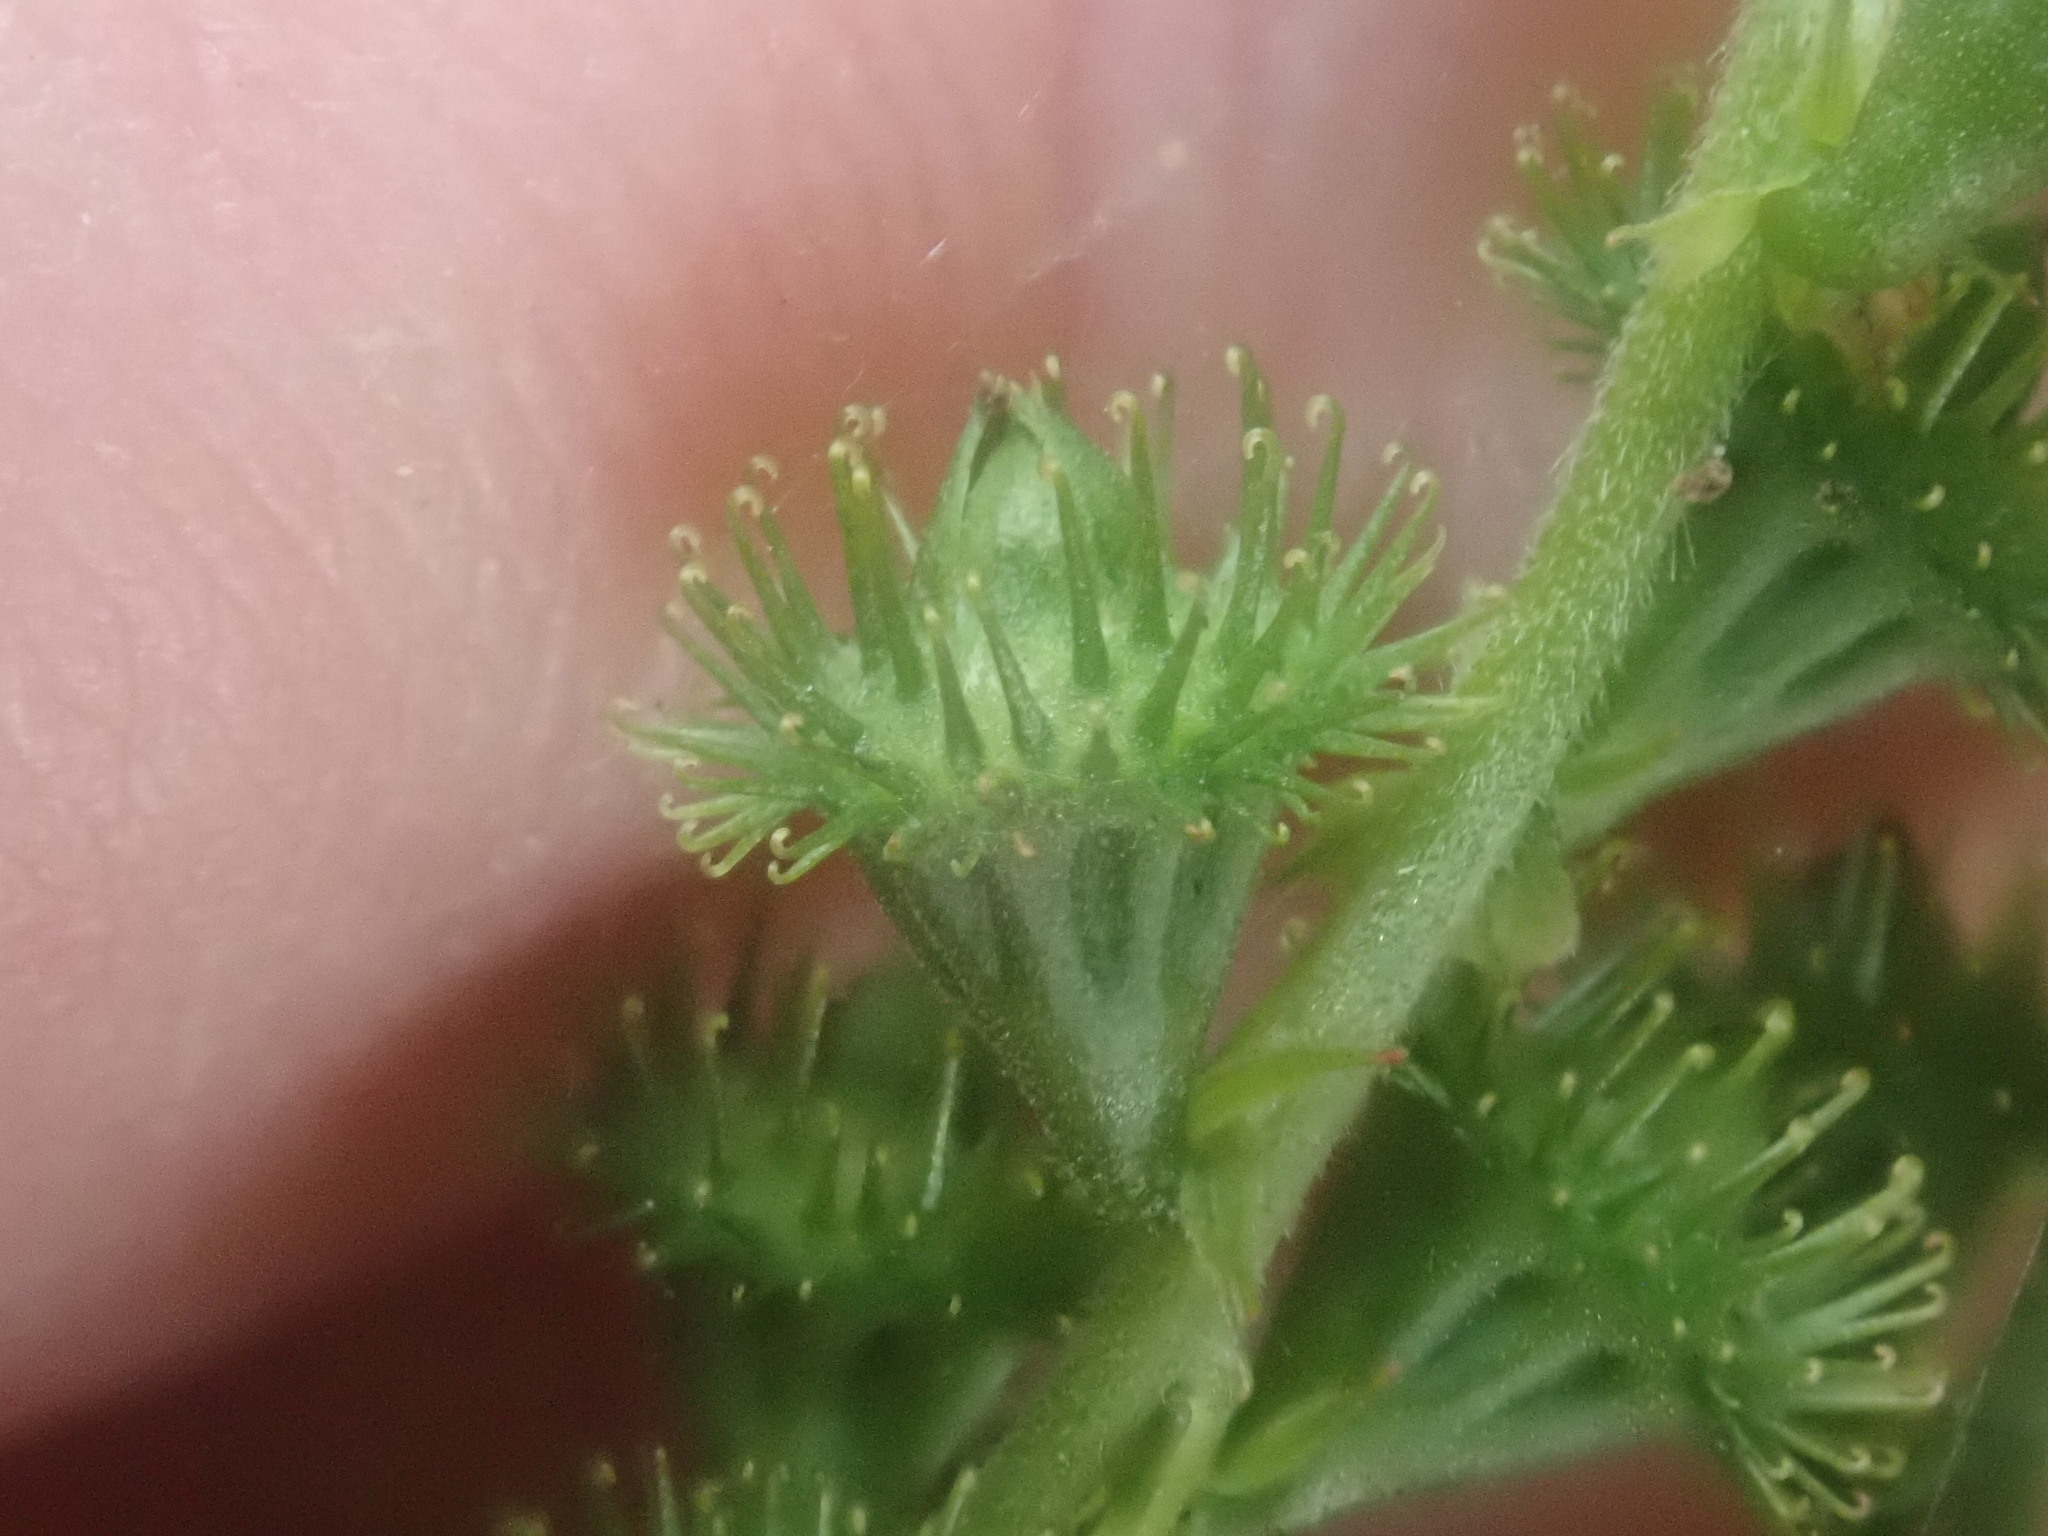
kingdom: Plantae
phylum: Tracheophyta
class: Magnoliopsida
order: Rosales
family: Rosaceae
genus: Agrimonia
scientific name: Agrimonia
